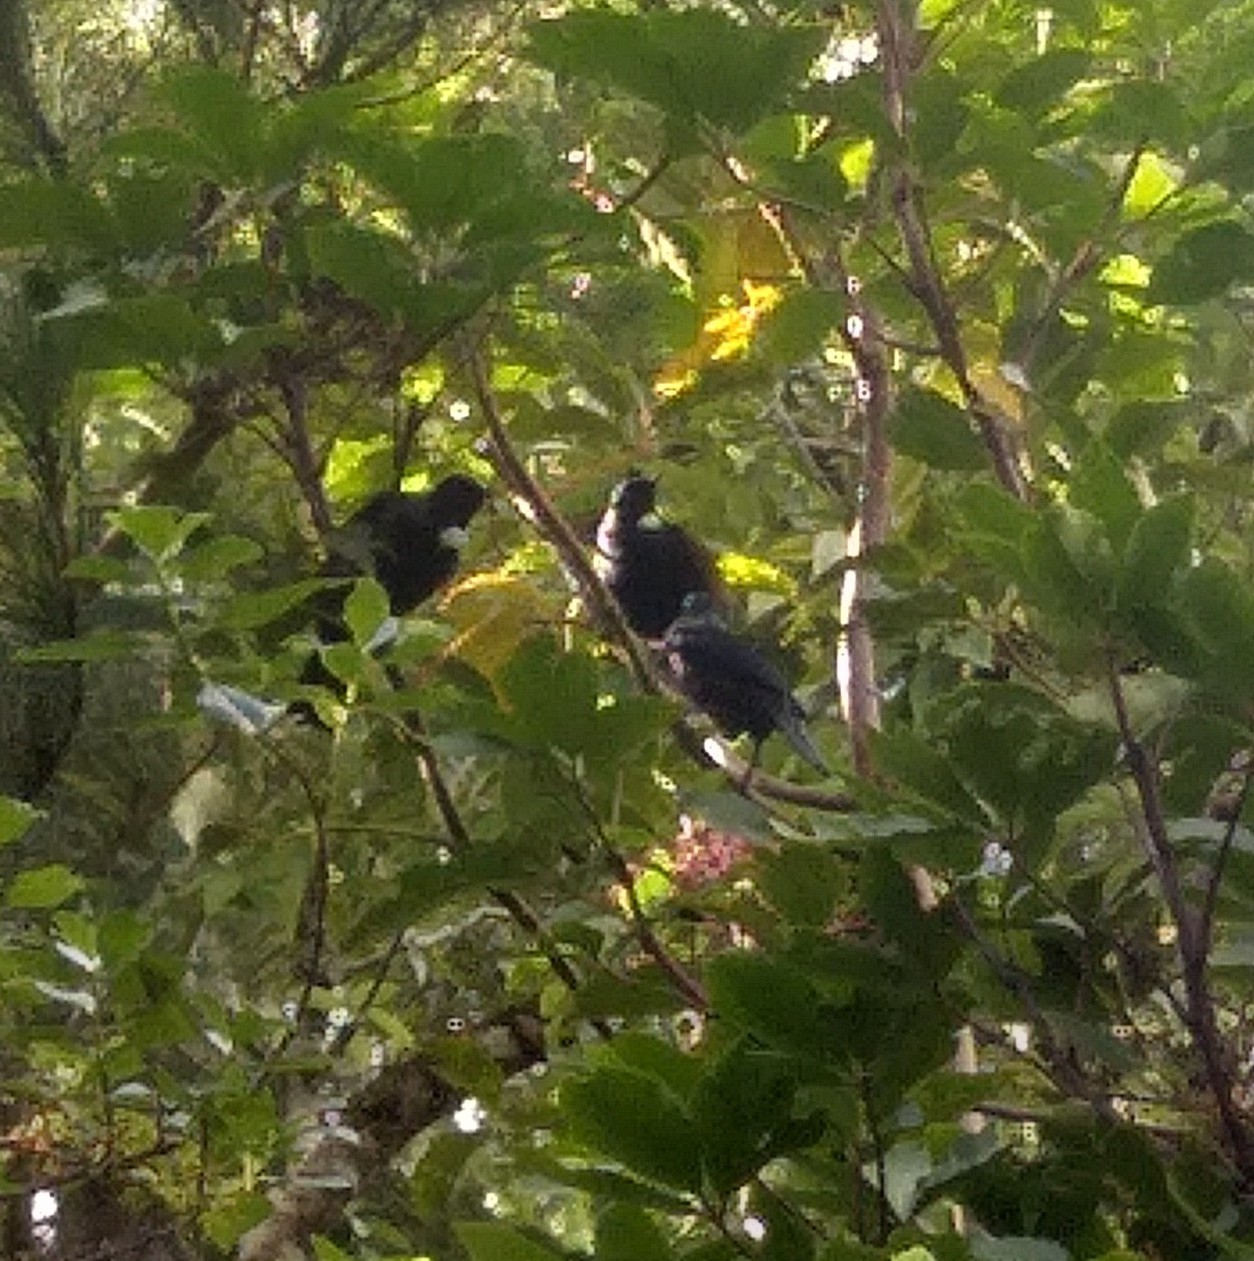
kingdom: Animalia
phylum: Chordata
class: Aves
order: Passeriformes
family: Meliphagidae
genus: Prosthemadera
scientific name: Prosthemadera novaeseelandiae
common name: Tui
